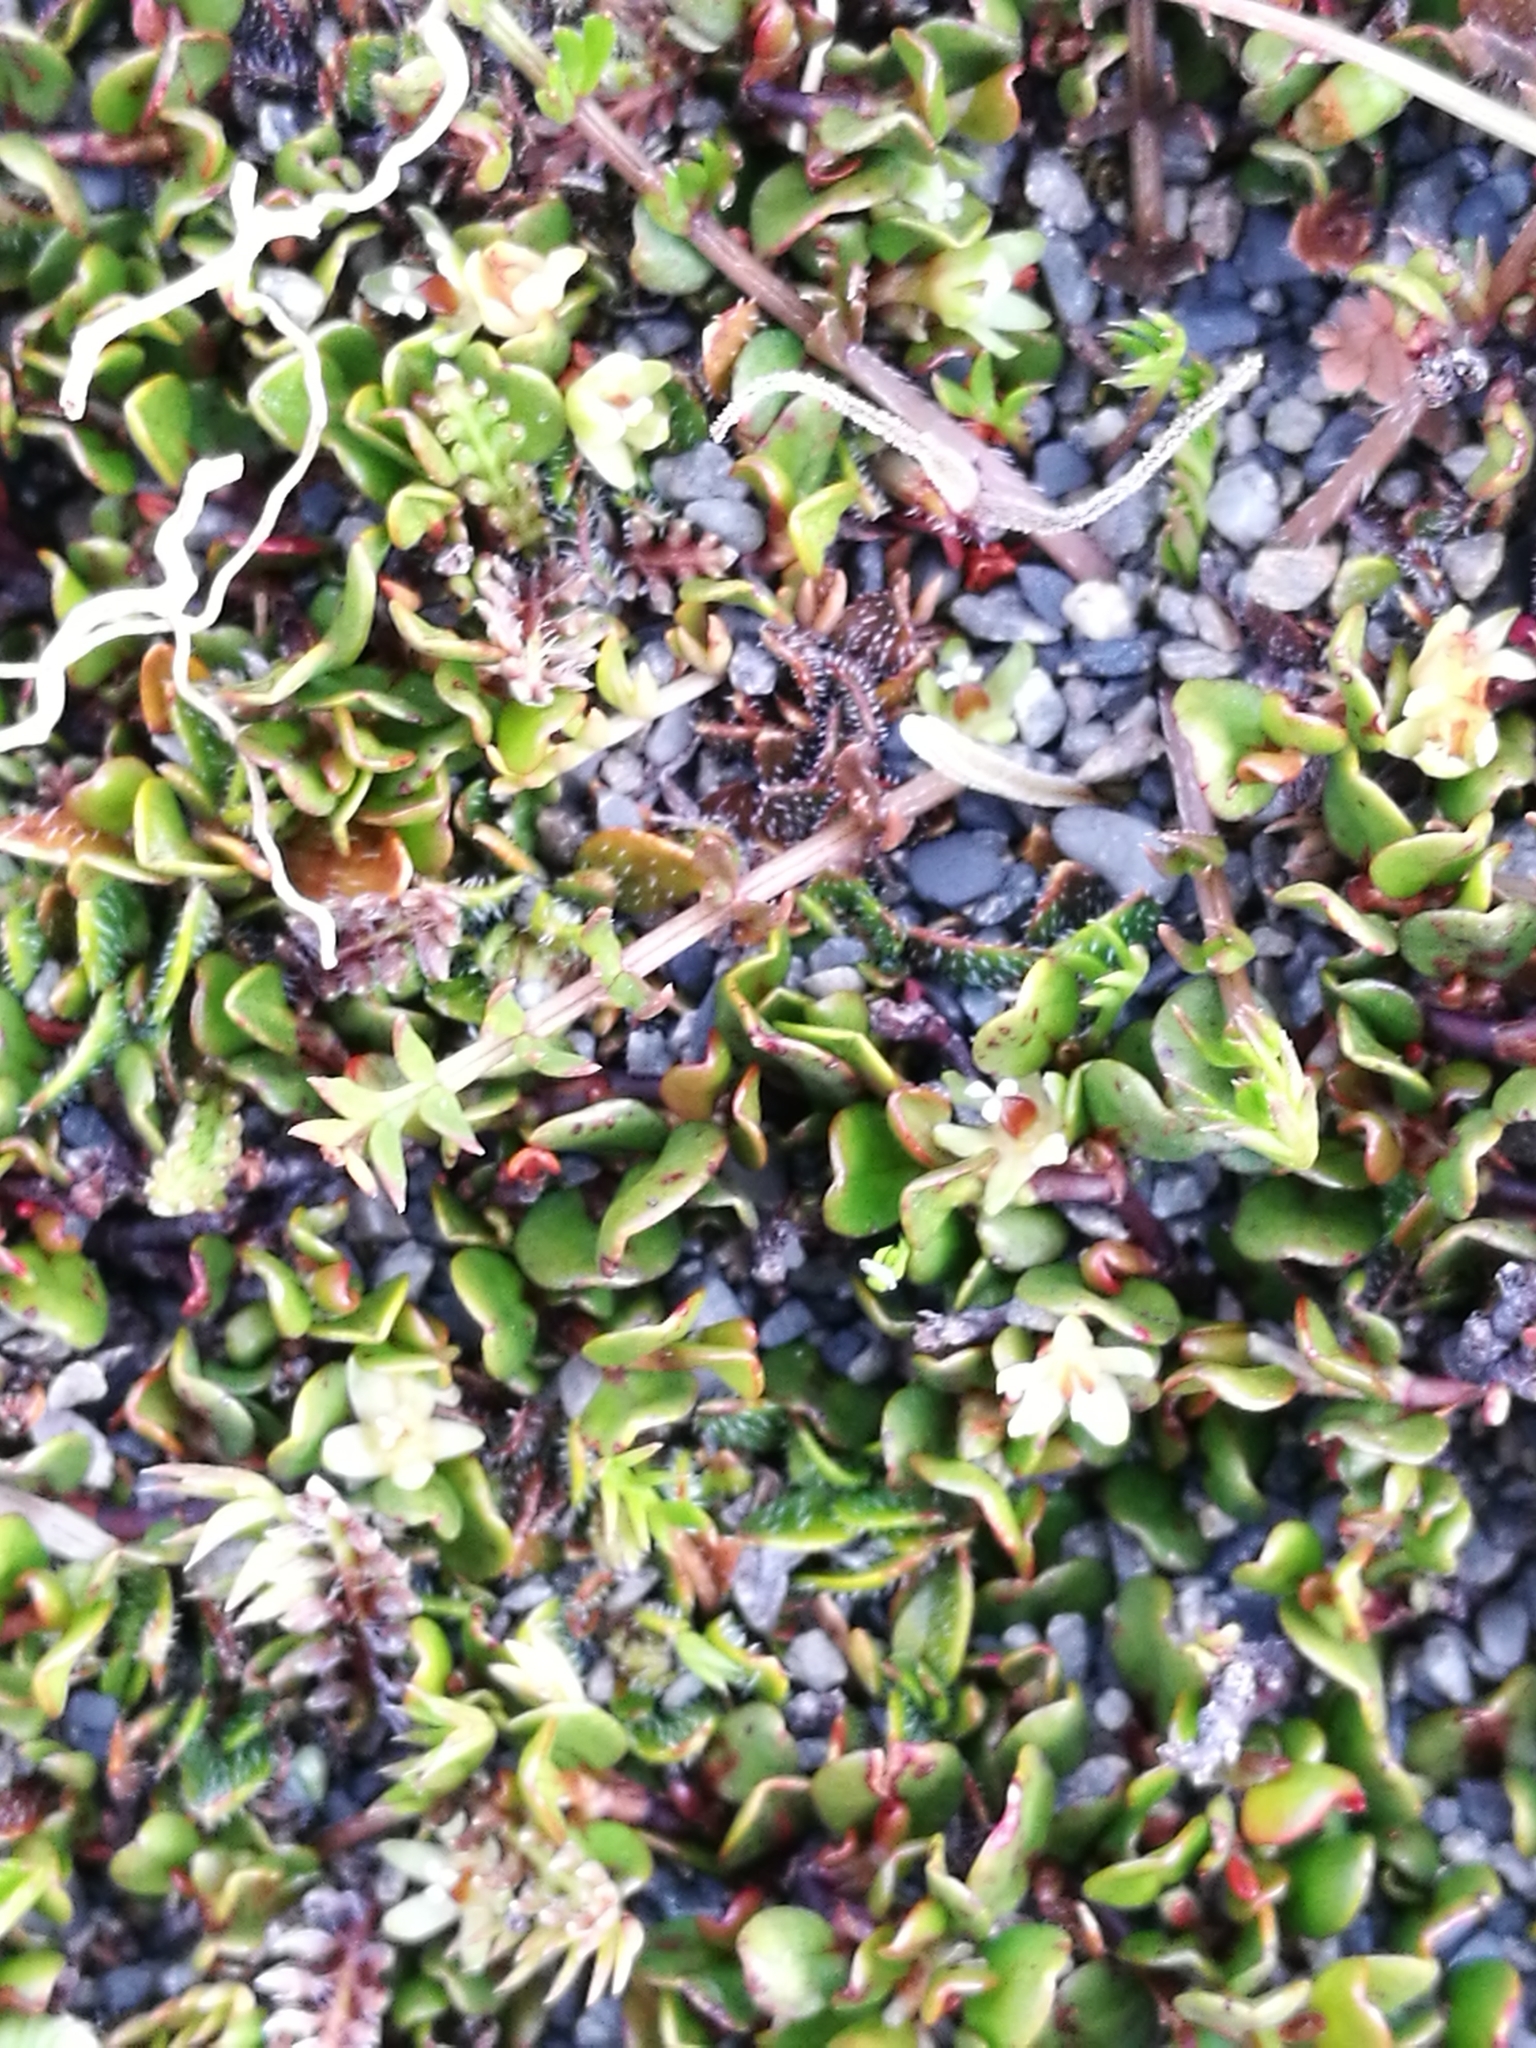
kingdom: Plantae
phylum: Tracheophyta
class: Magnoliopsida
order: Caryophyllales
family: Polygonaceae
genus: Muehlenbeckia
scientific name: Muehlenbeckia axillaris
